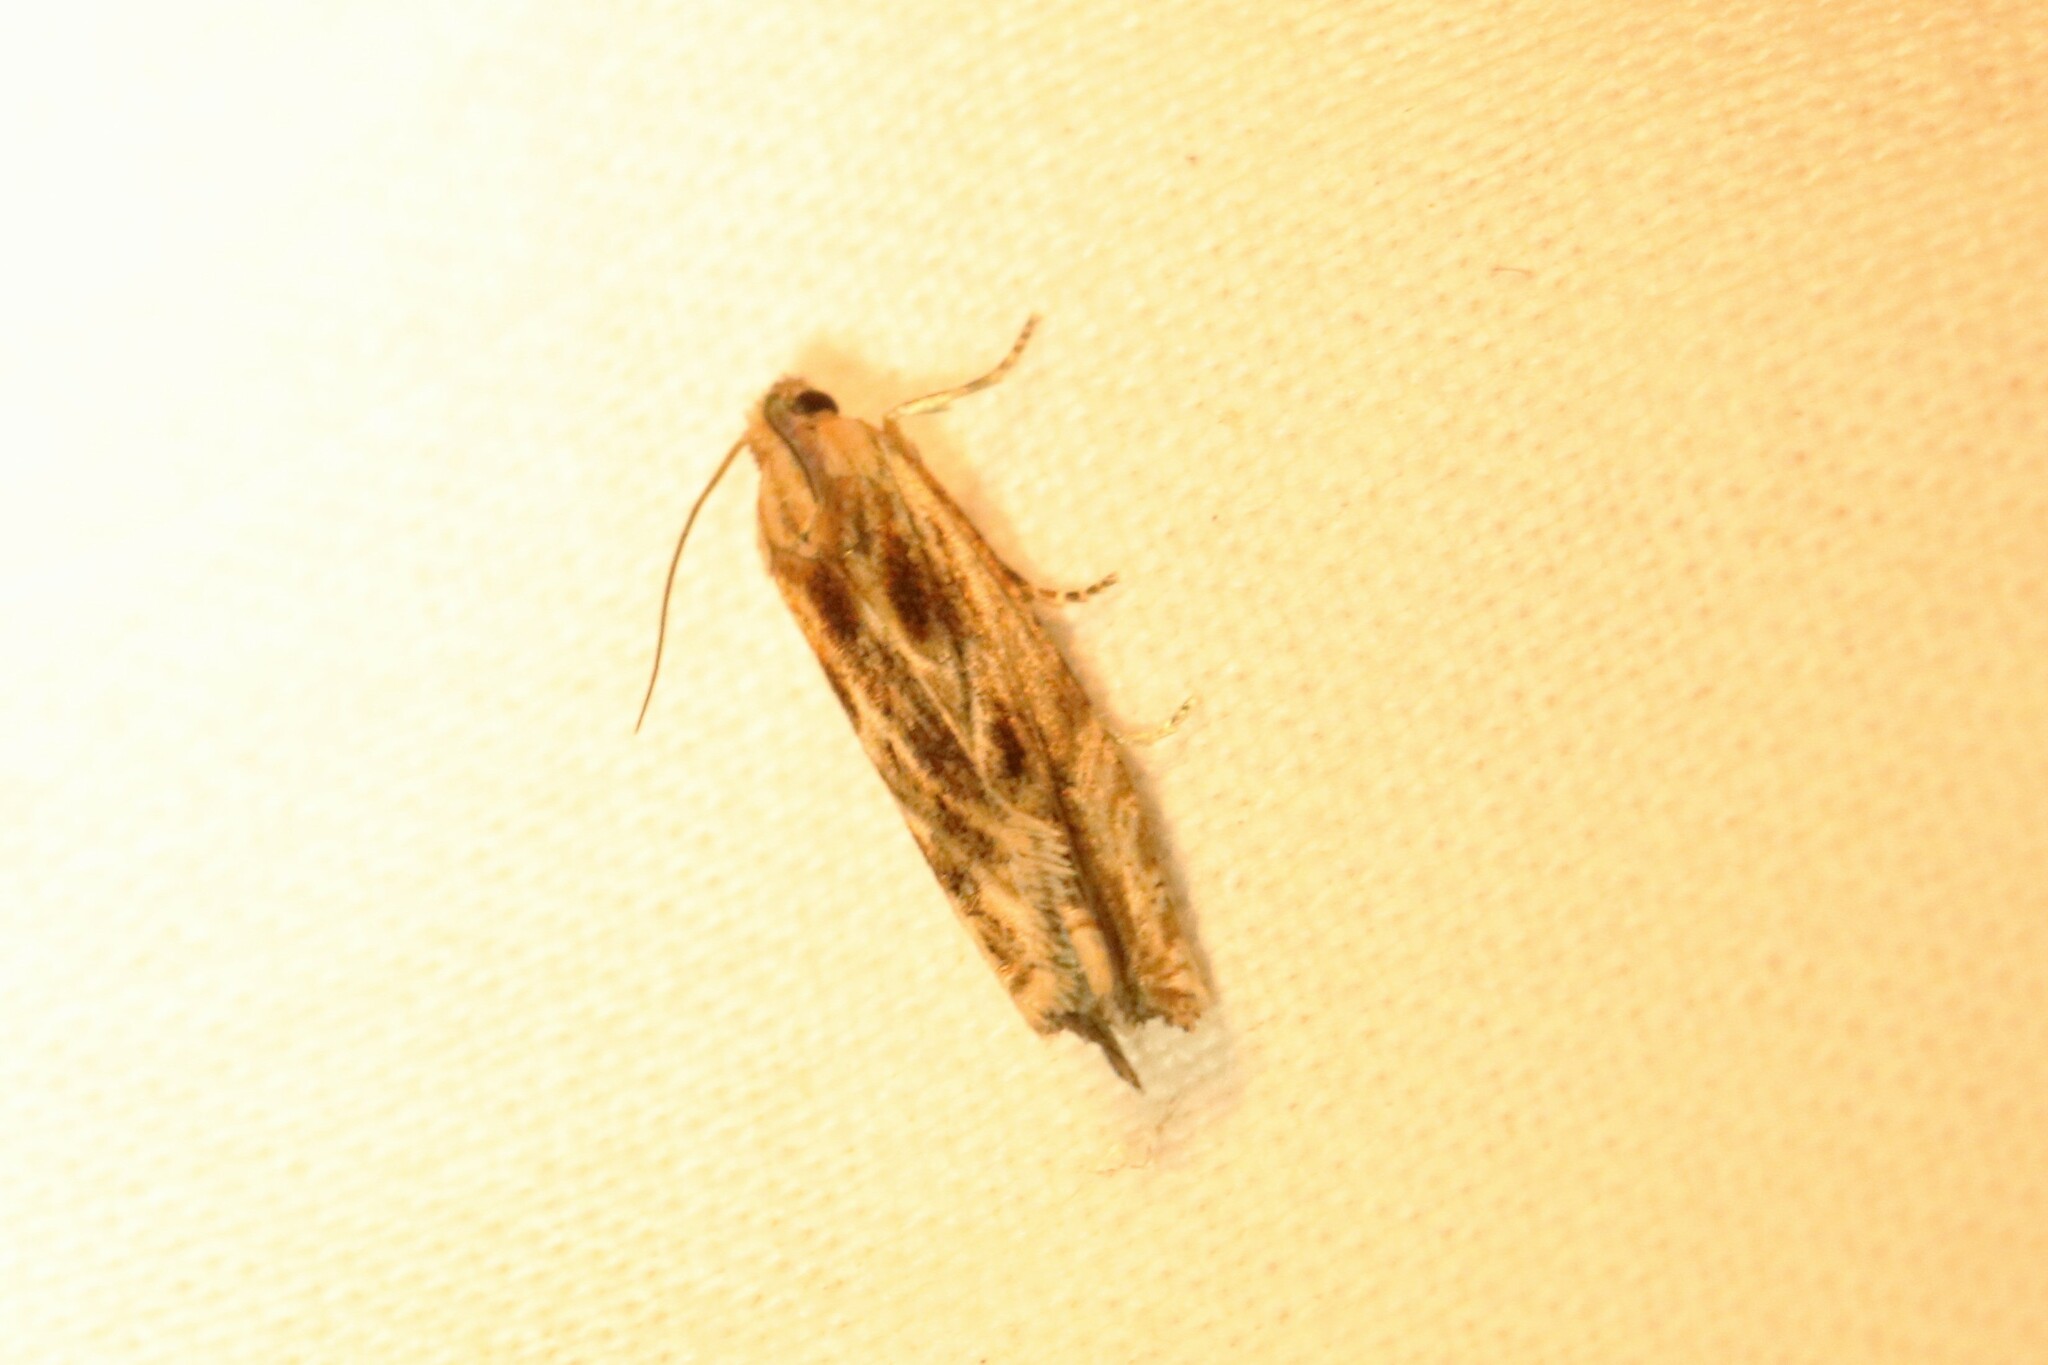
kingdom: Animalia
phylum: Arthropoda
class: Insecta
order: Lepidoptera
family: Tortricidae
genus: Pelochrista
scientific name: Pelochrista cataclystiana
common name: Goldenrod pelochrista moth
